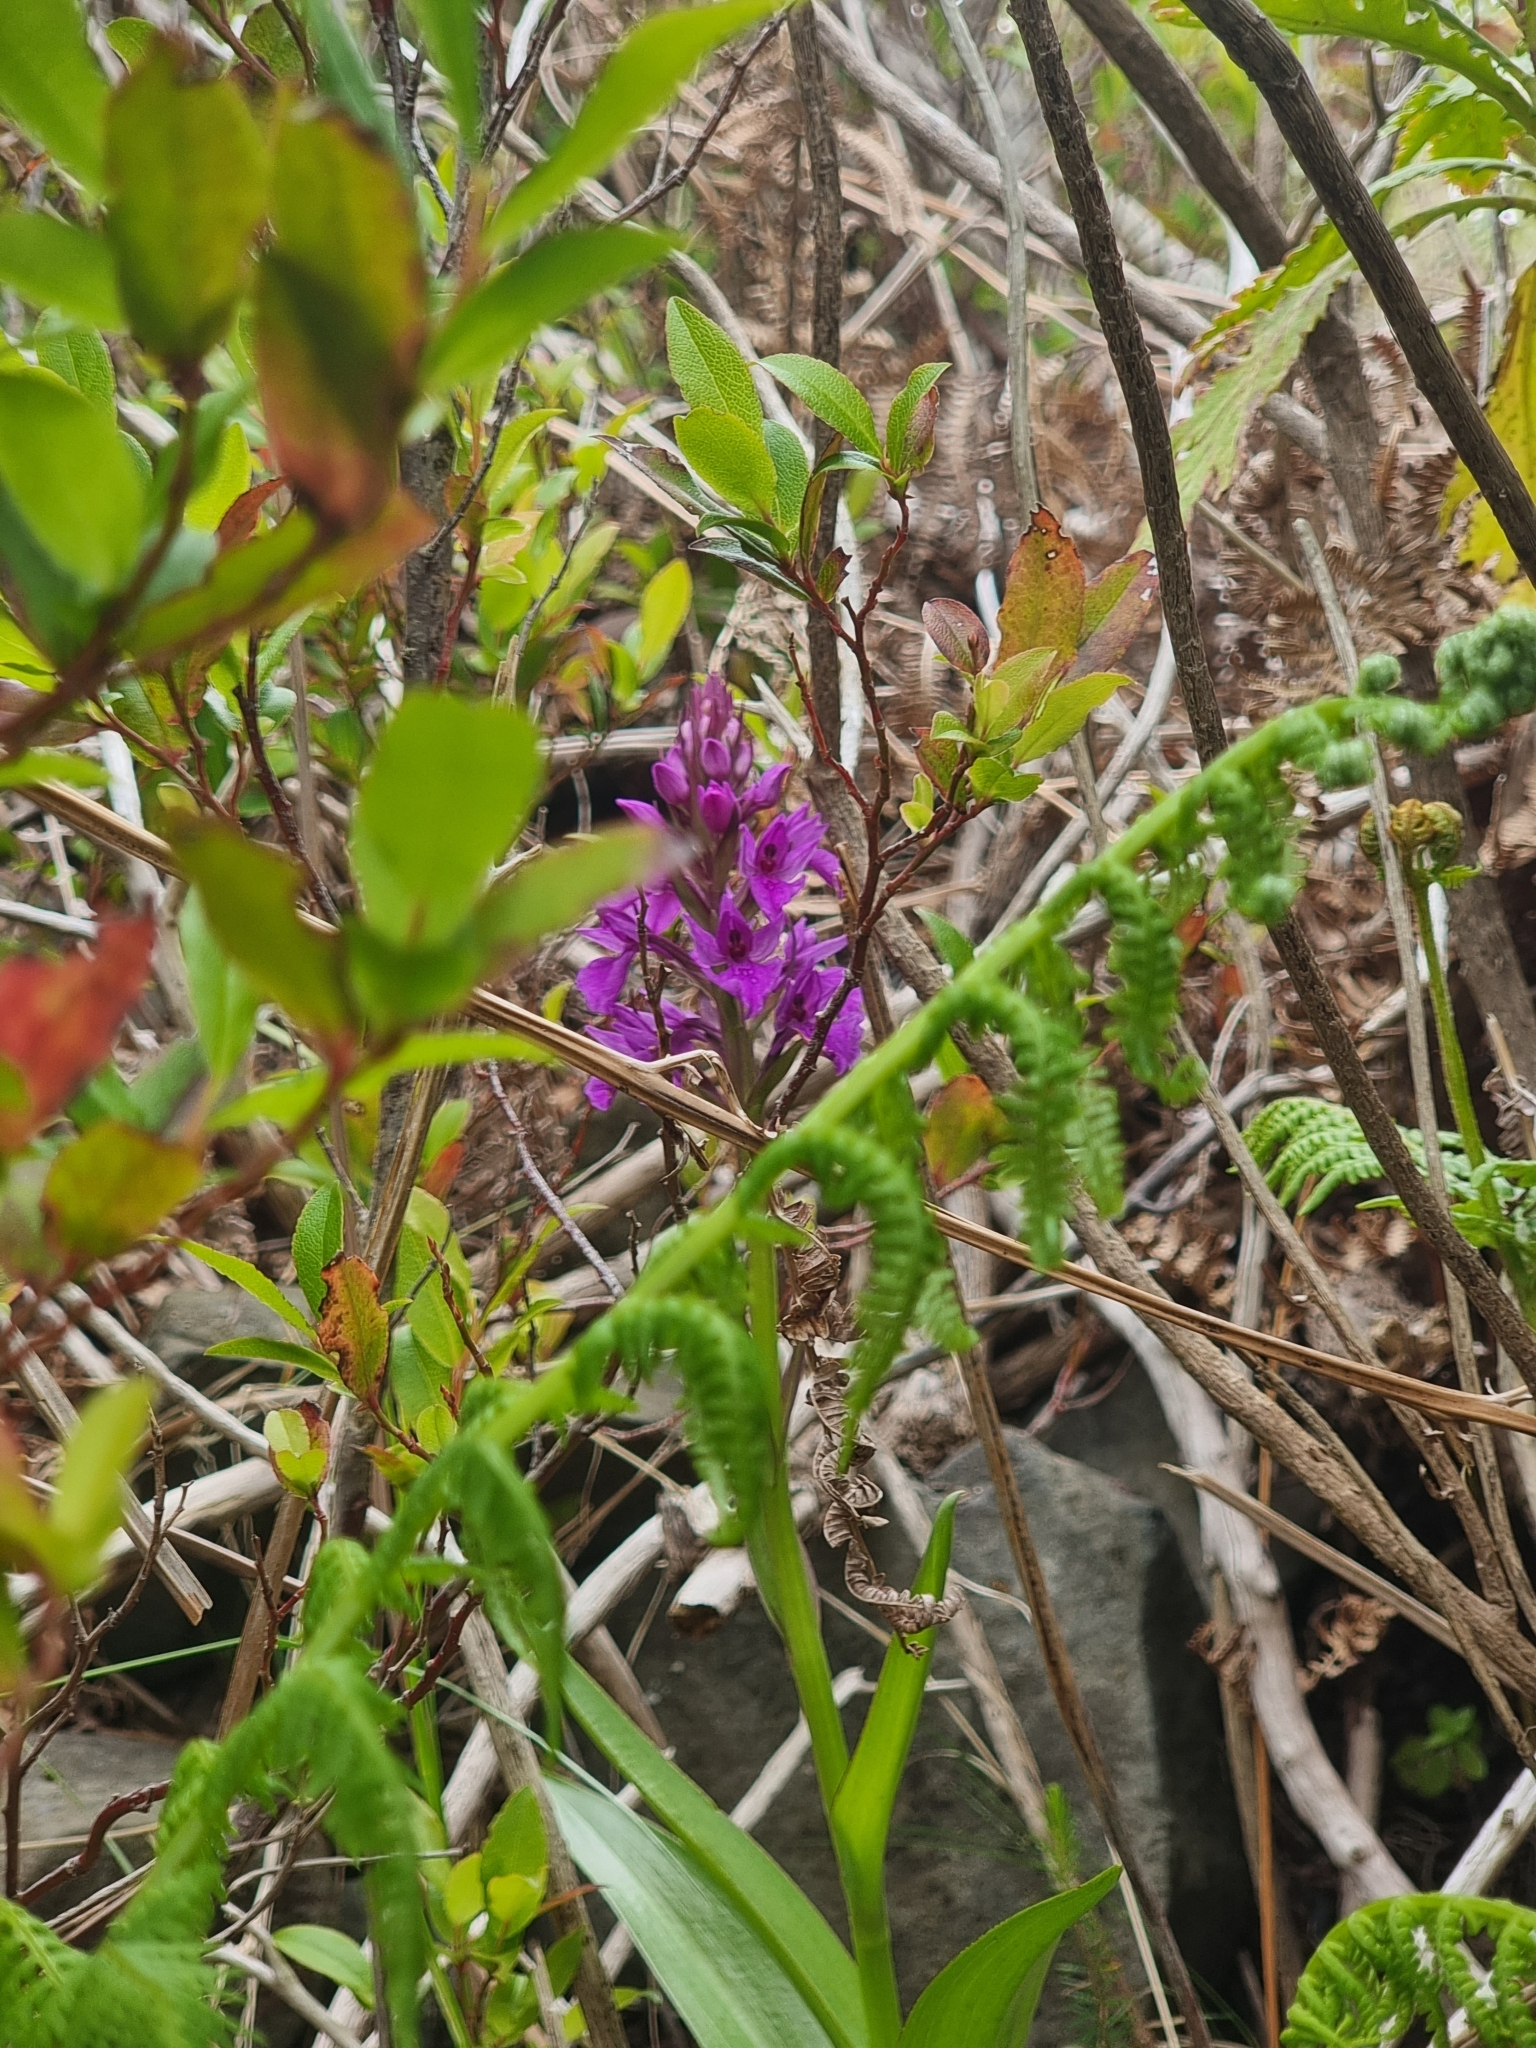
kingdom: Plantae
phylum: Tracheophyta
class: Liliopsida
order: Asparagales
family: Orchidaceae
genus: Dactylorhiza
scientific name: Dactylorhiza foliosa
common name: Richly-leaved dactylorhiza
